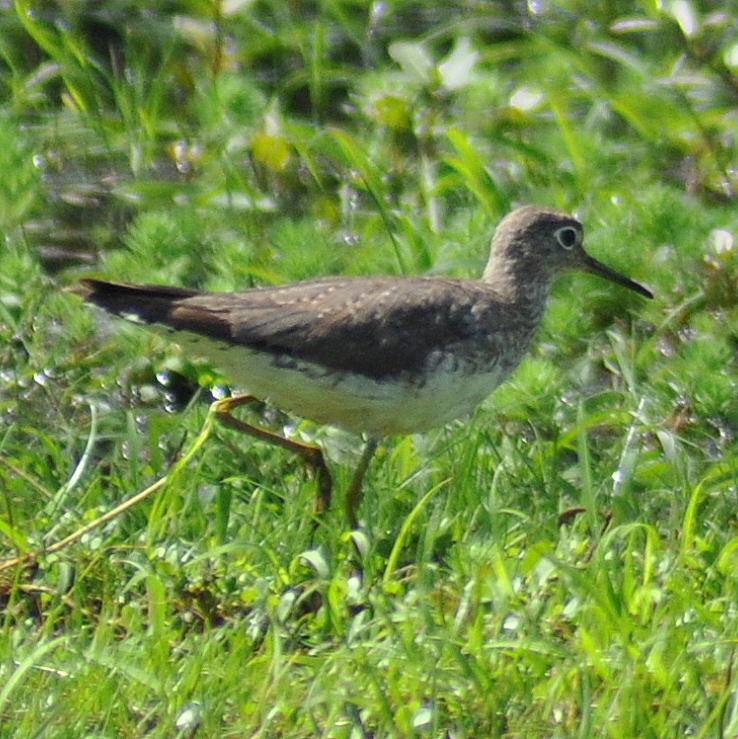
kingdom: Animalia
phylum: Chordata
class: Aves
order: Charadriiformes
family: Scolopacidae
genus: Tringa
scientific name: Tringa solitaria
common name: Solitary sandpiper
